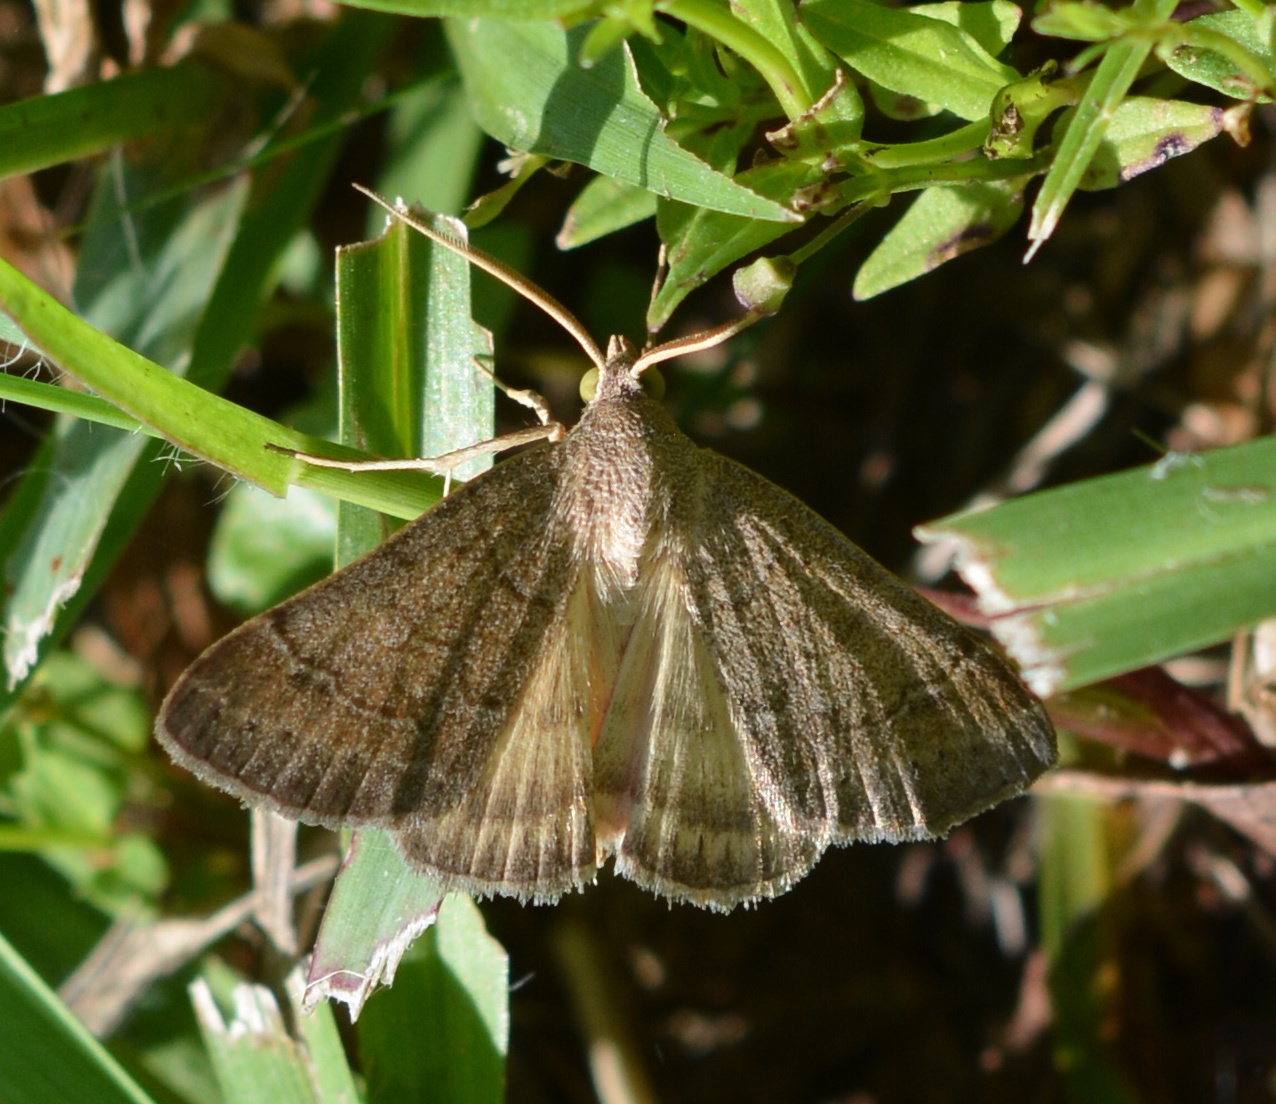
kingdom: Animalia
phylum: Arthropoda
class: Insecta
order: Lepidoptera
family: Erebidae
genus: Caenurgia
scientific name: Caenurgia chloropha
